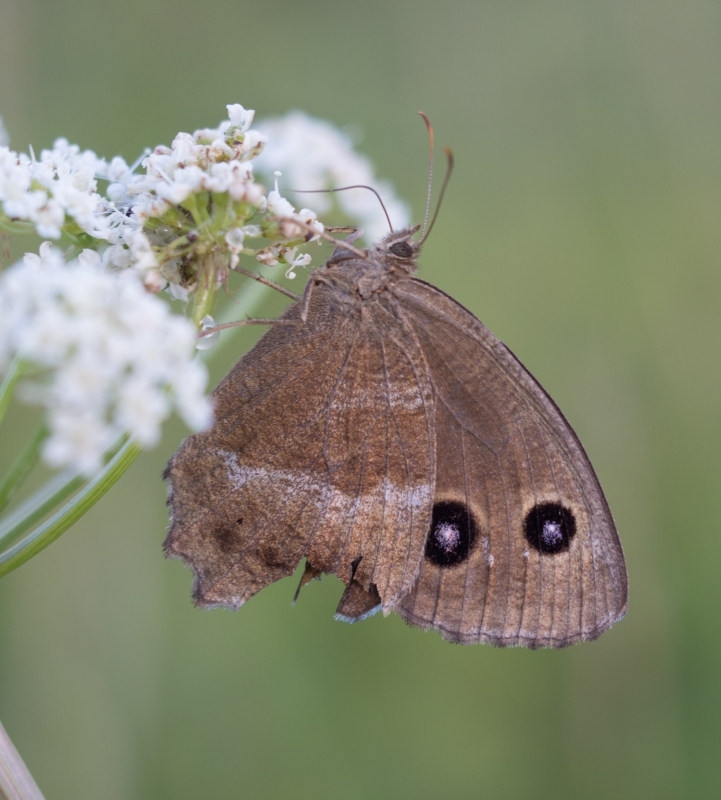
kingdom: Animalia
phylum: Arthropoda
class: Insecta
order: Lepidoptera
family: Nymphalidae
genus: Minois
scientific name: Minois dryas
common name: Dryad
